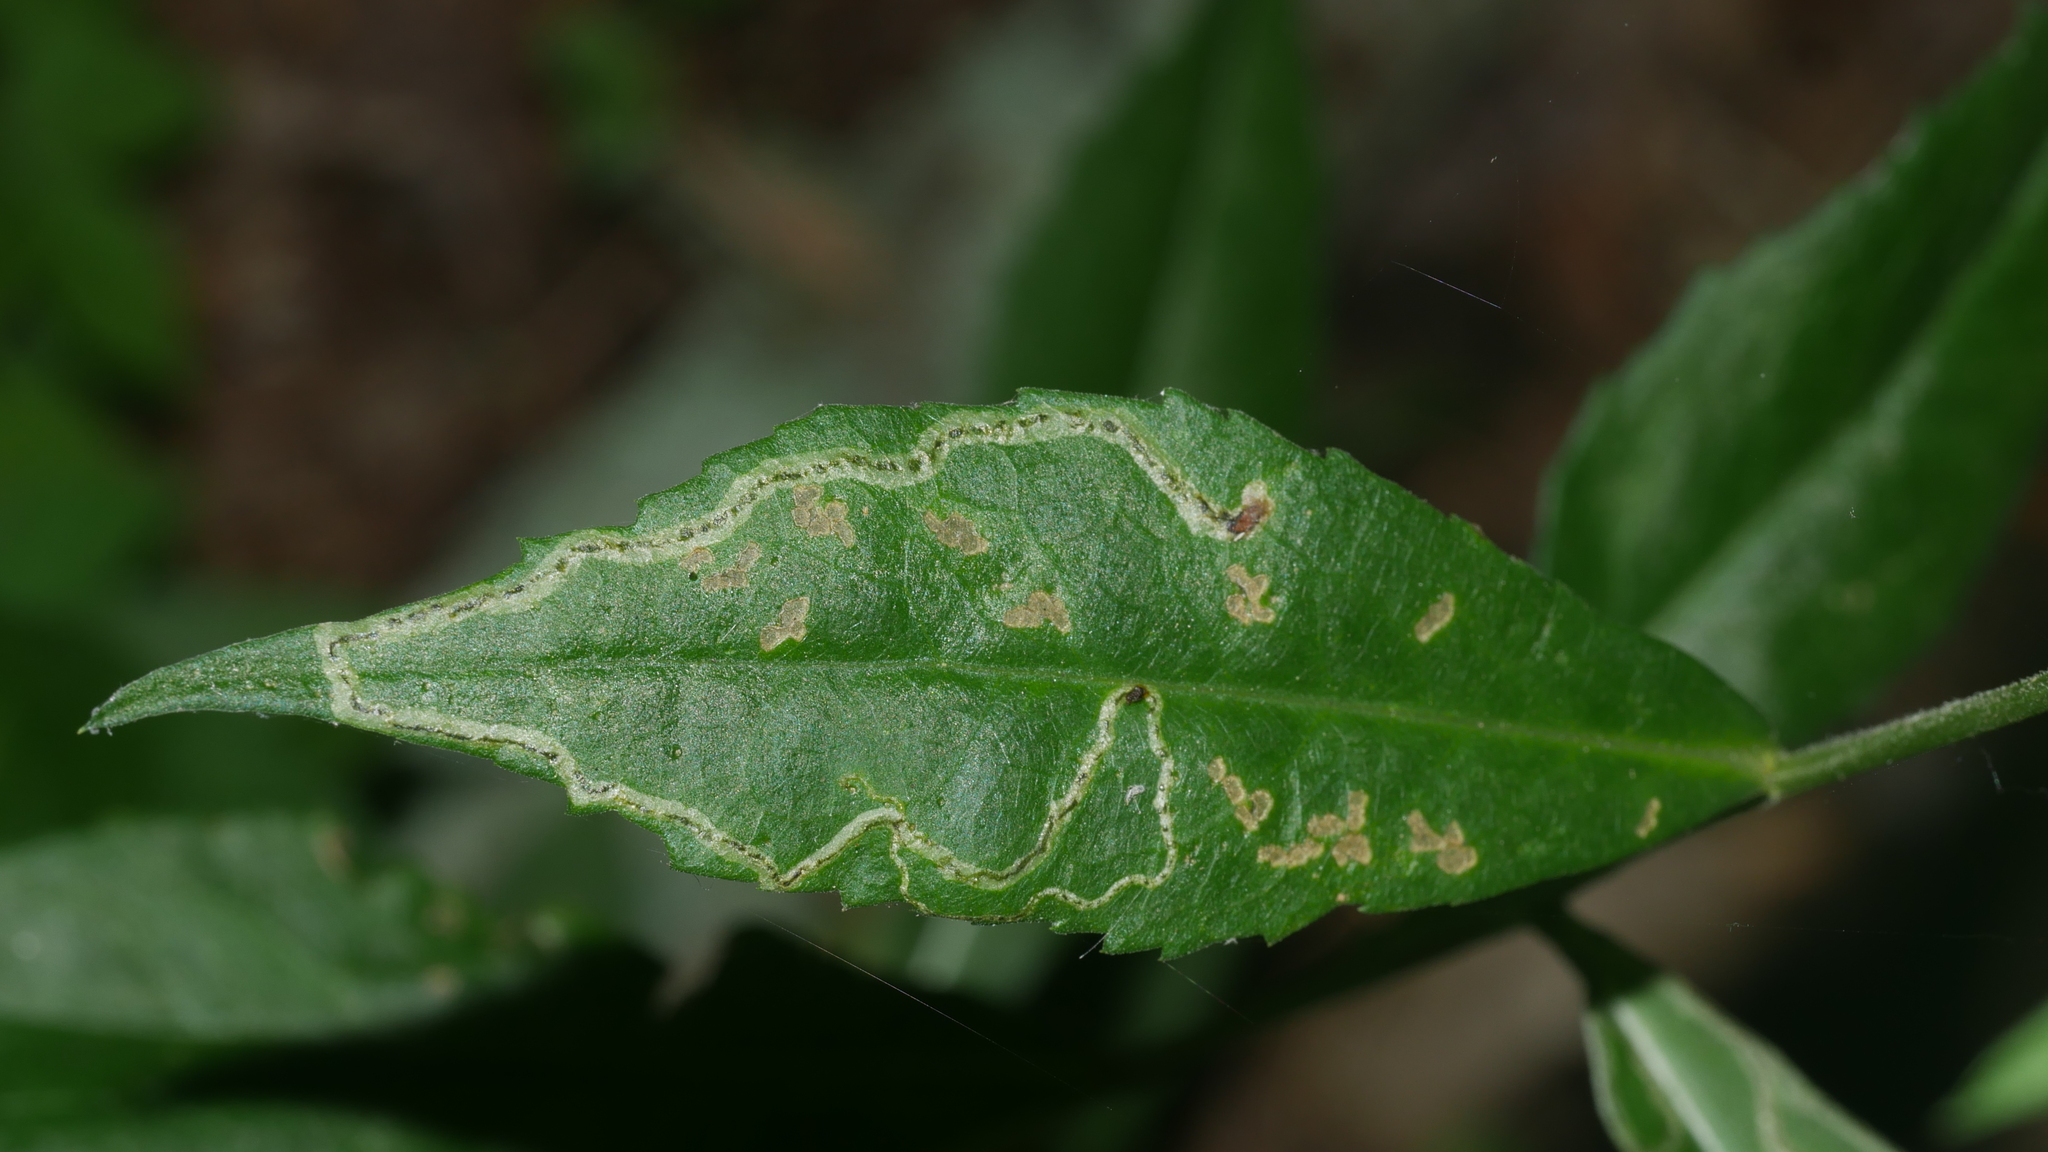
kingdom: Animalia
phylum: Arthropoda
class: Insecta
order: Diptera
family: Agromyzidae
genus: Liriomyza
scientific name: Liriomyza eupatorii
